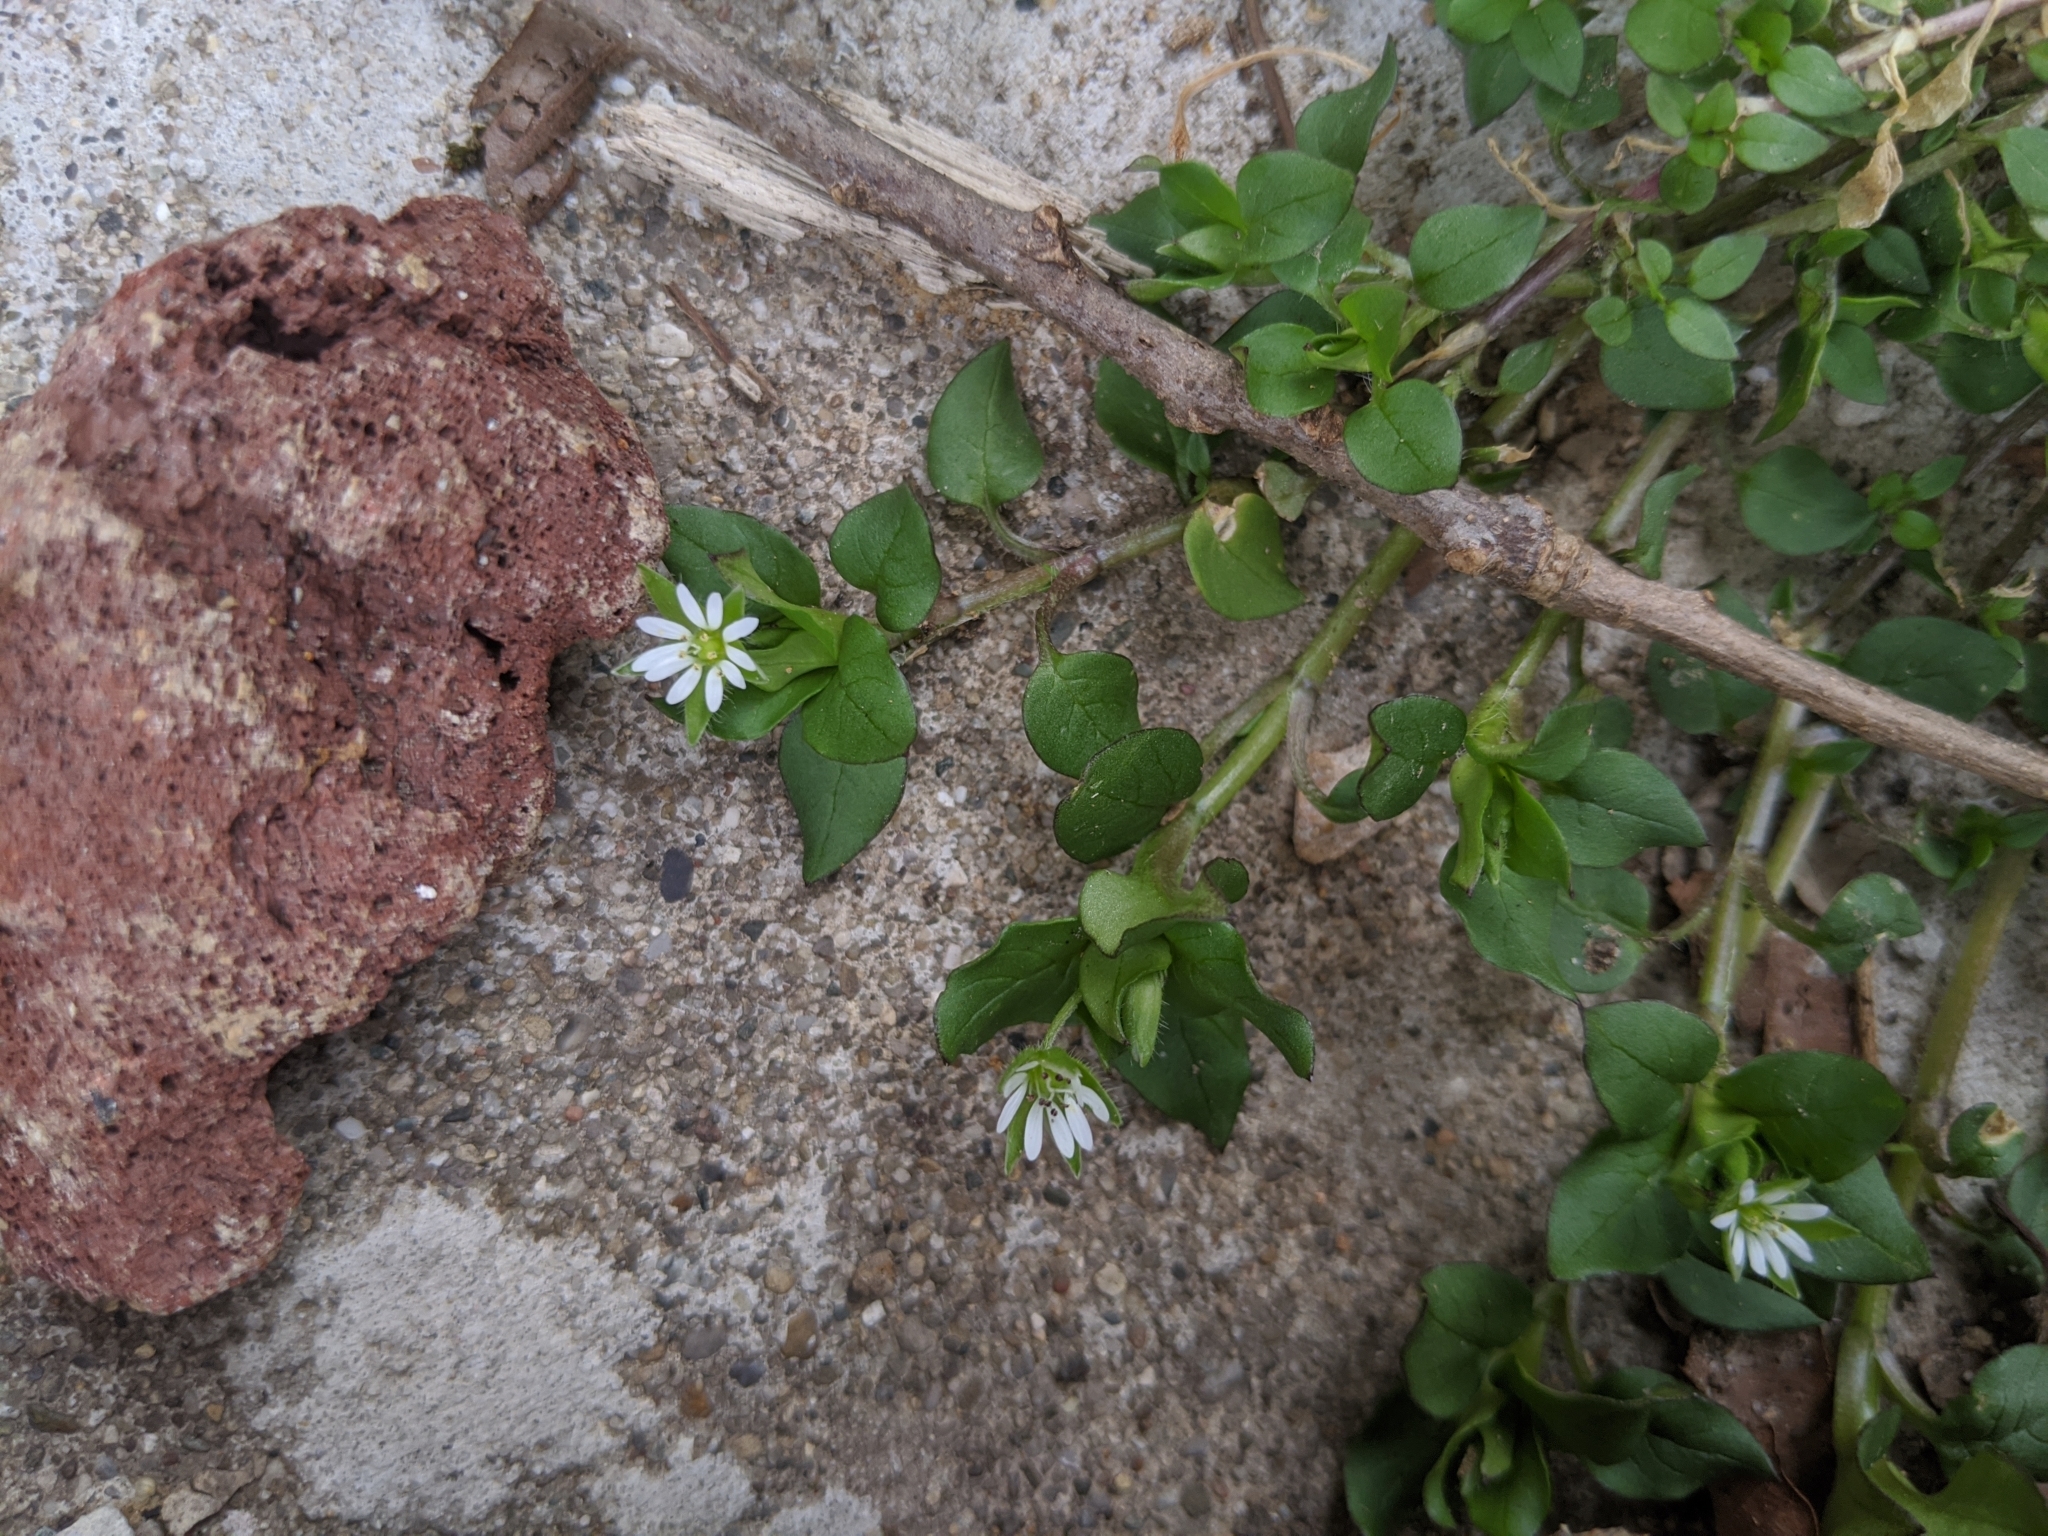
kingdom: Plantae
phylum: Tracheophyta
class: Magnoliopsida
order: Caryophyllales
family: Caryophyllaceae
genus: Stellaria
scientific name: Stellaria media
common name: Common chickweed
